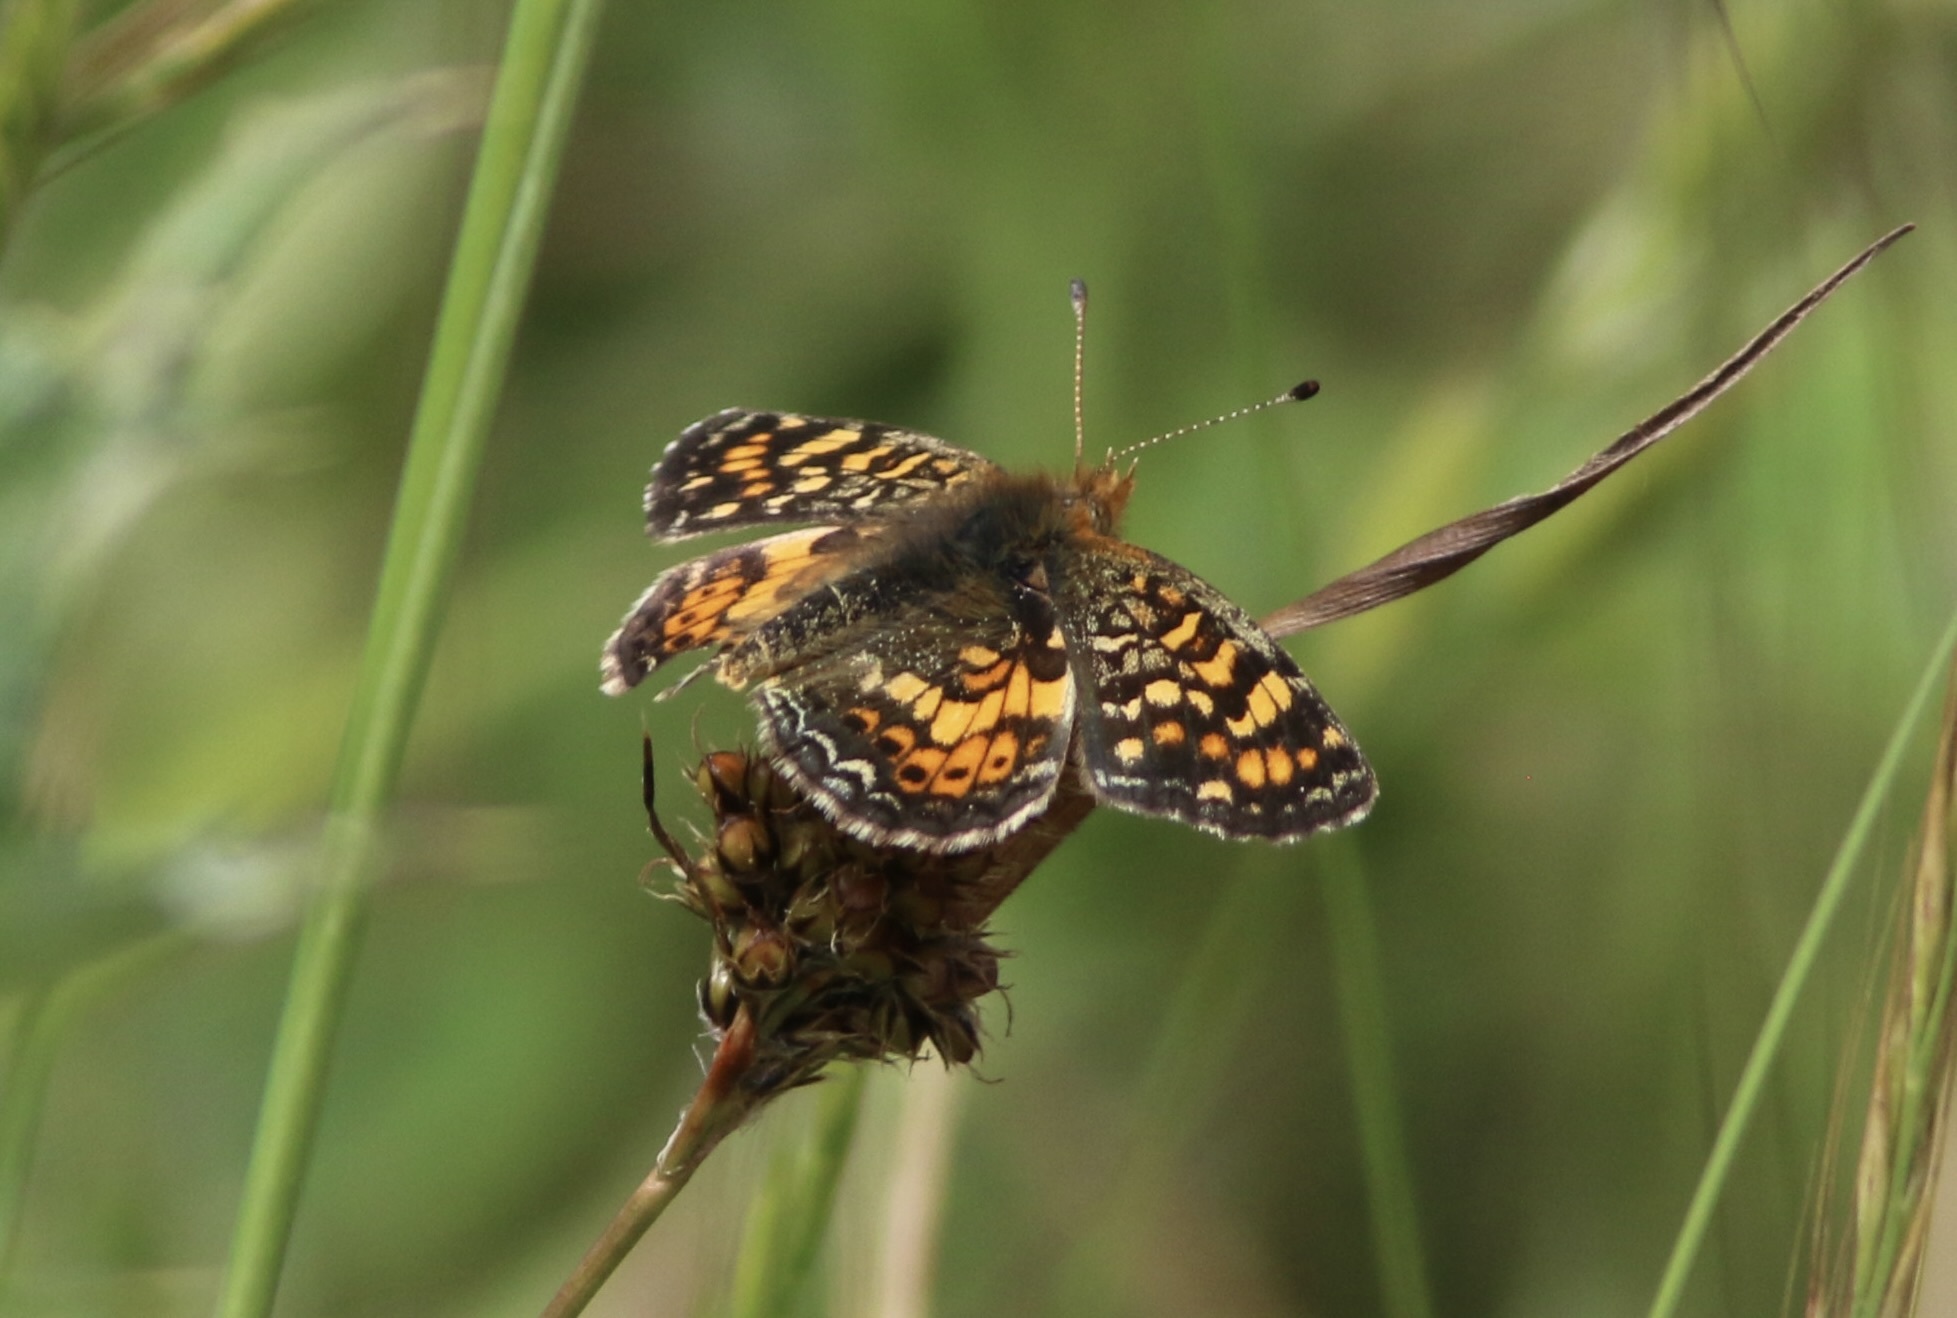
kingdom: Animalia
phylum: Arthropoda
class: Insecta
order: Lepidoptera
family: Nymphalidae
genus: Phyciodes
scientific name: Phyciodes tharos
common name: Pearl crescent
